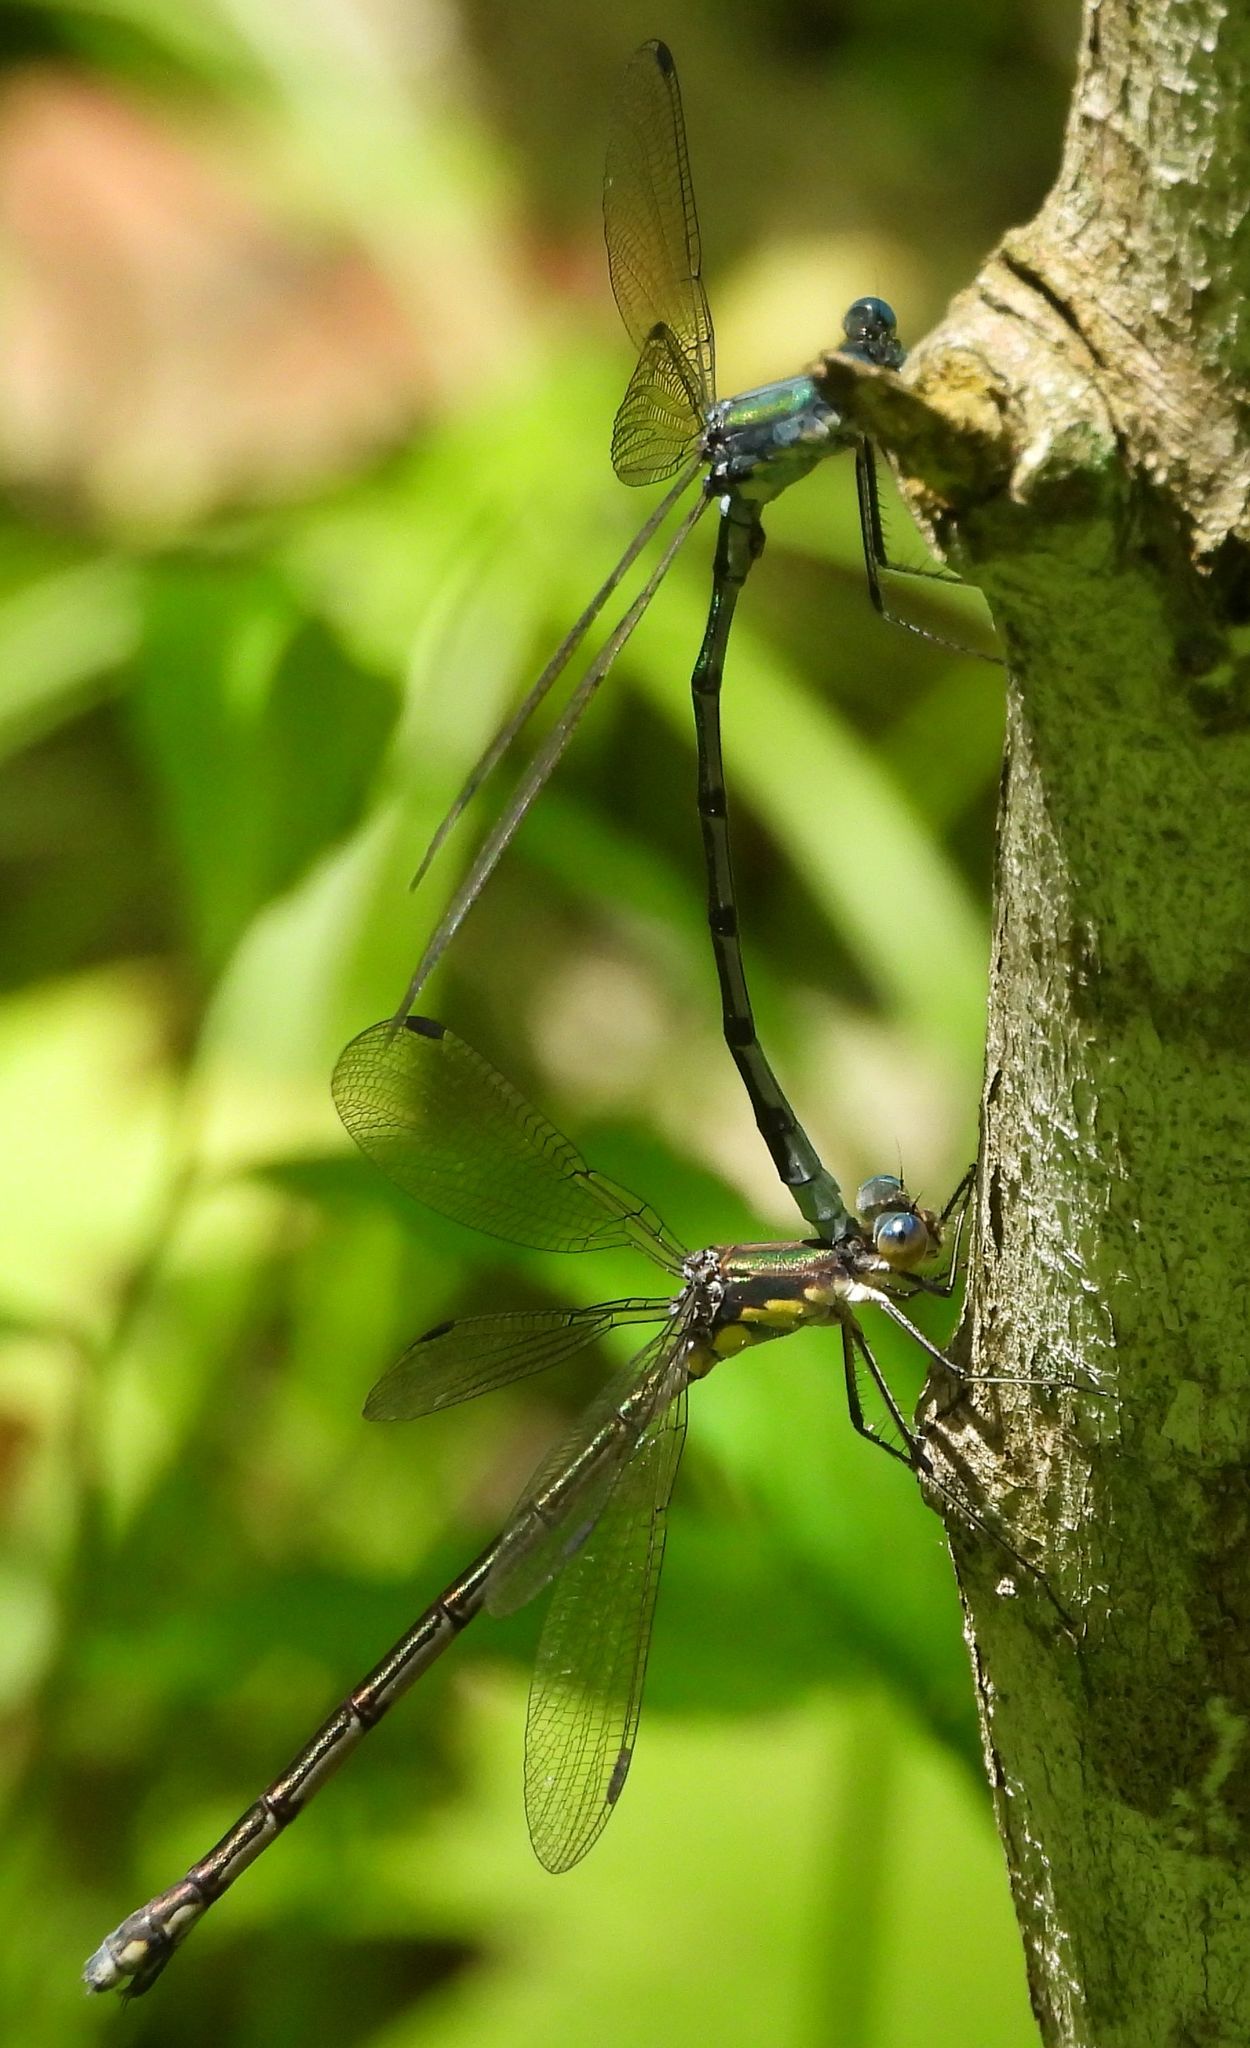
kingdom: Animalia
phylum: Arthropoda
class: Insecta
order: Odonata
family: Lestidae
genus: Lestes
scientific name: Lestes eurinus
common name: Amber-winged spreadwing
